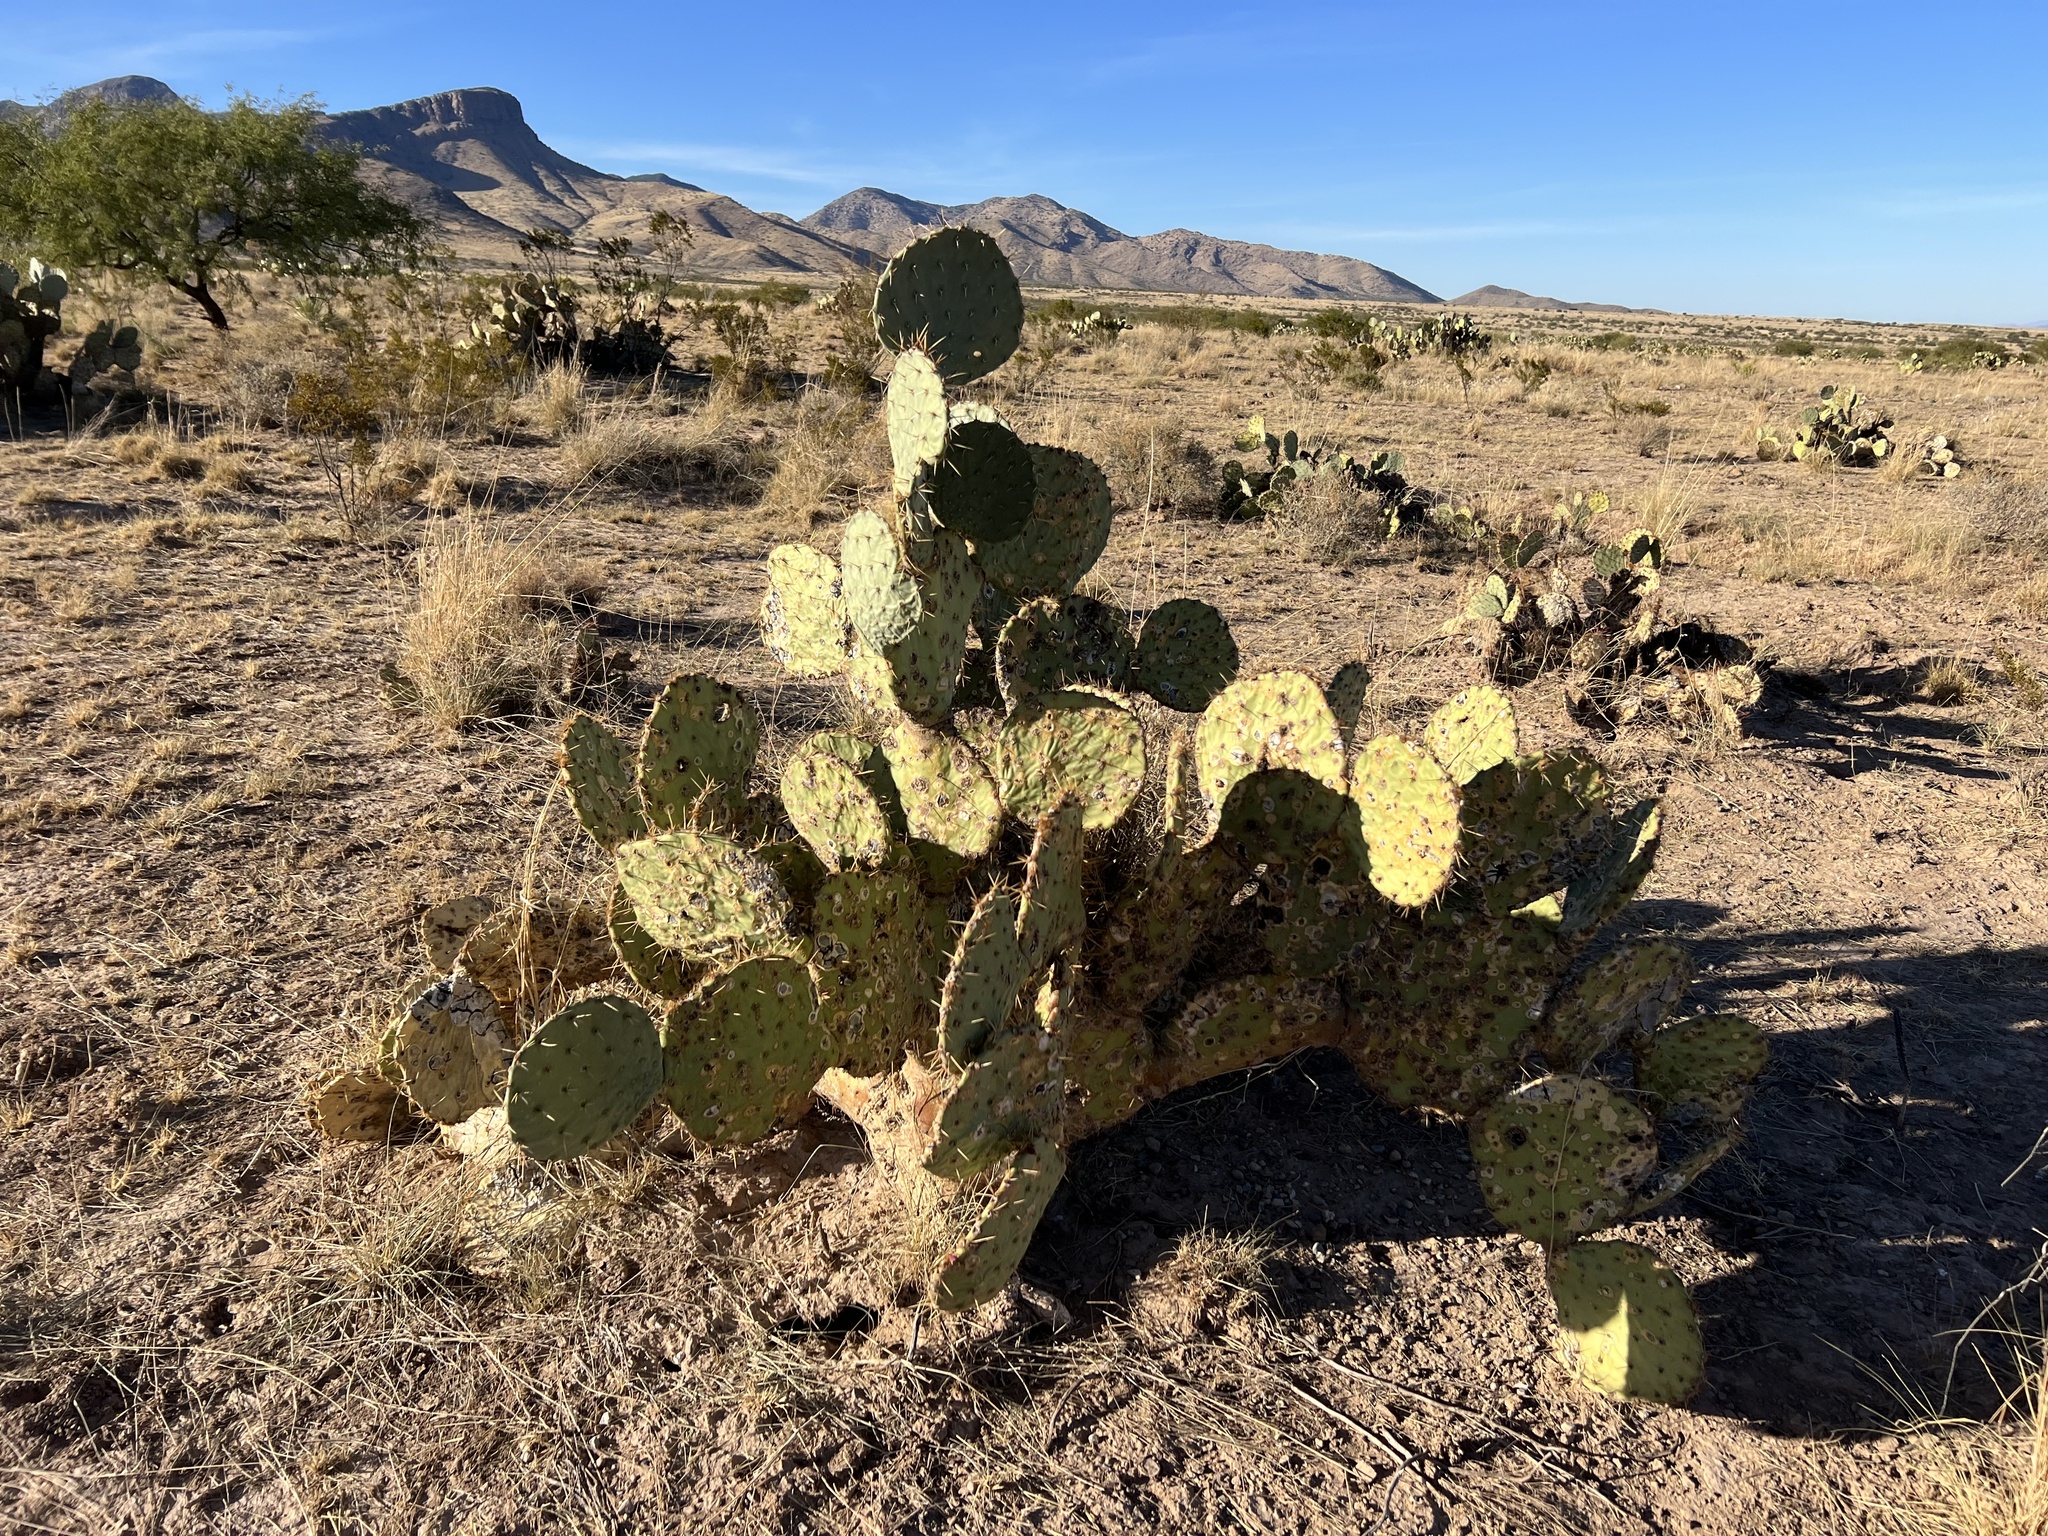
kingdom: Plantae
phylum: Tracheophyta
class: Magnoliopsida
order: Caryophyllales
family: Cactaceae
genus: Opuntia
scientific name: Opuntia engelmannii
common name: Cactus-apple
